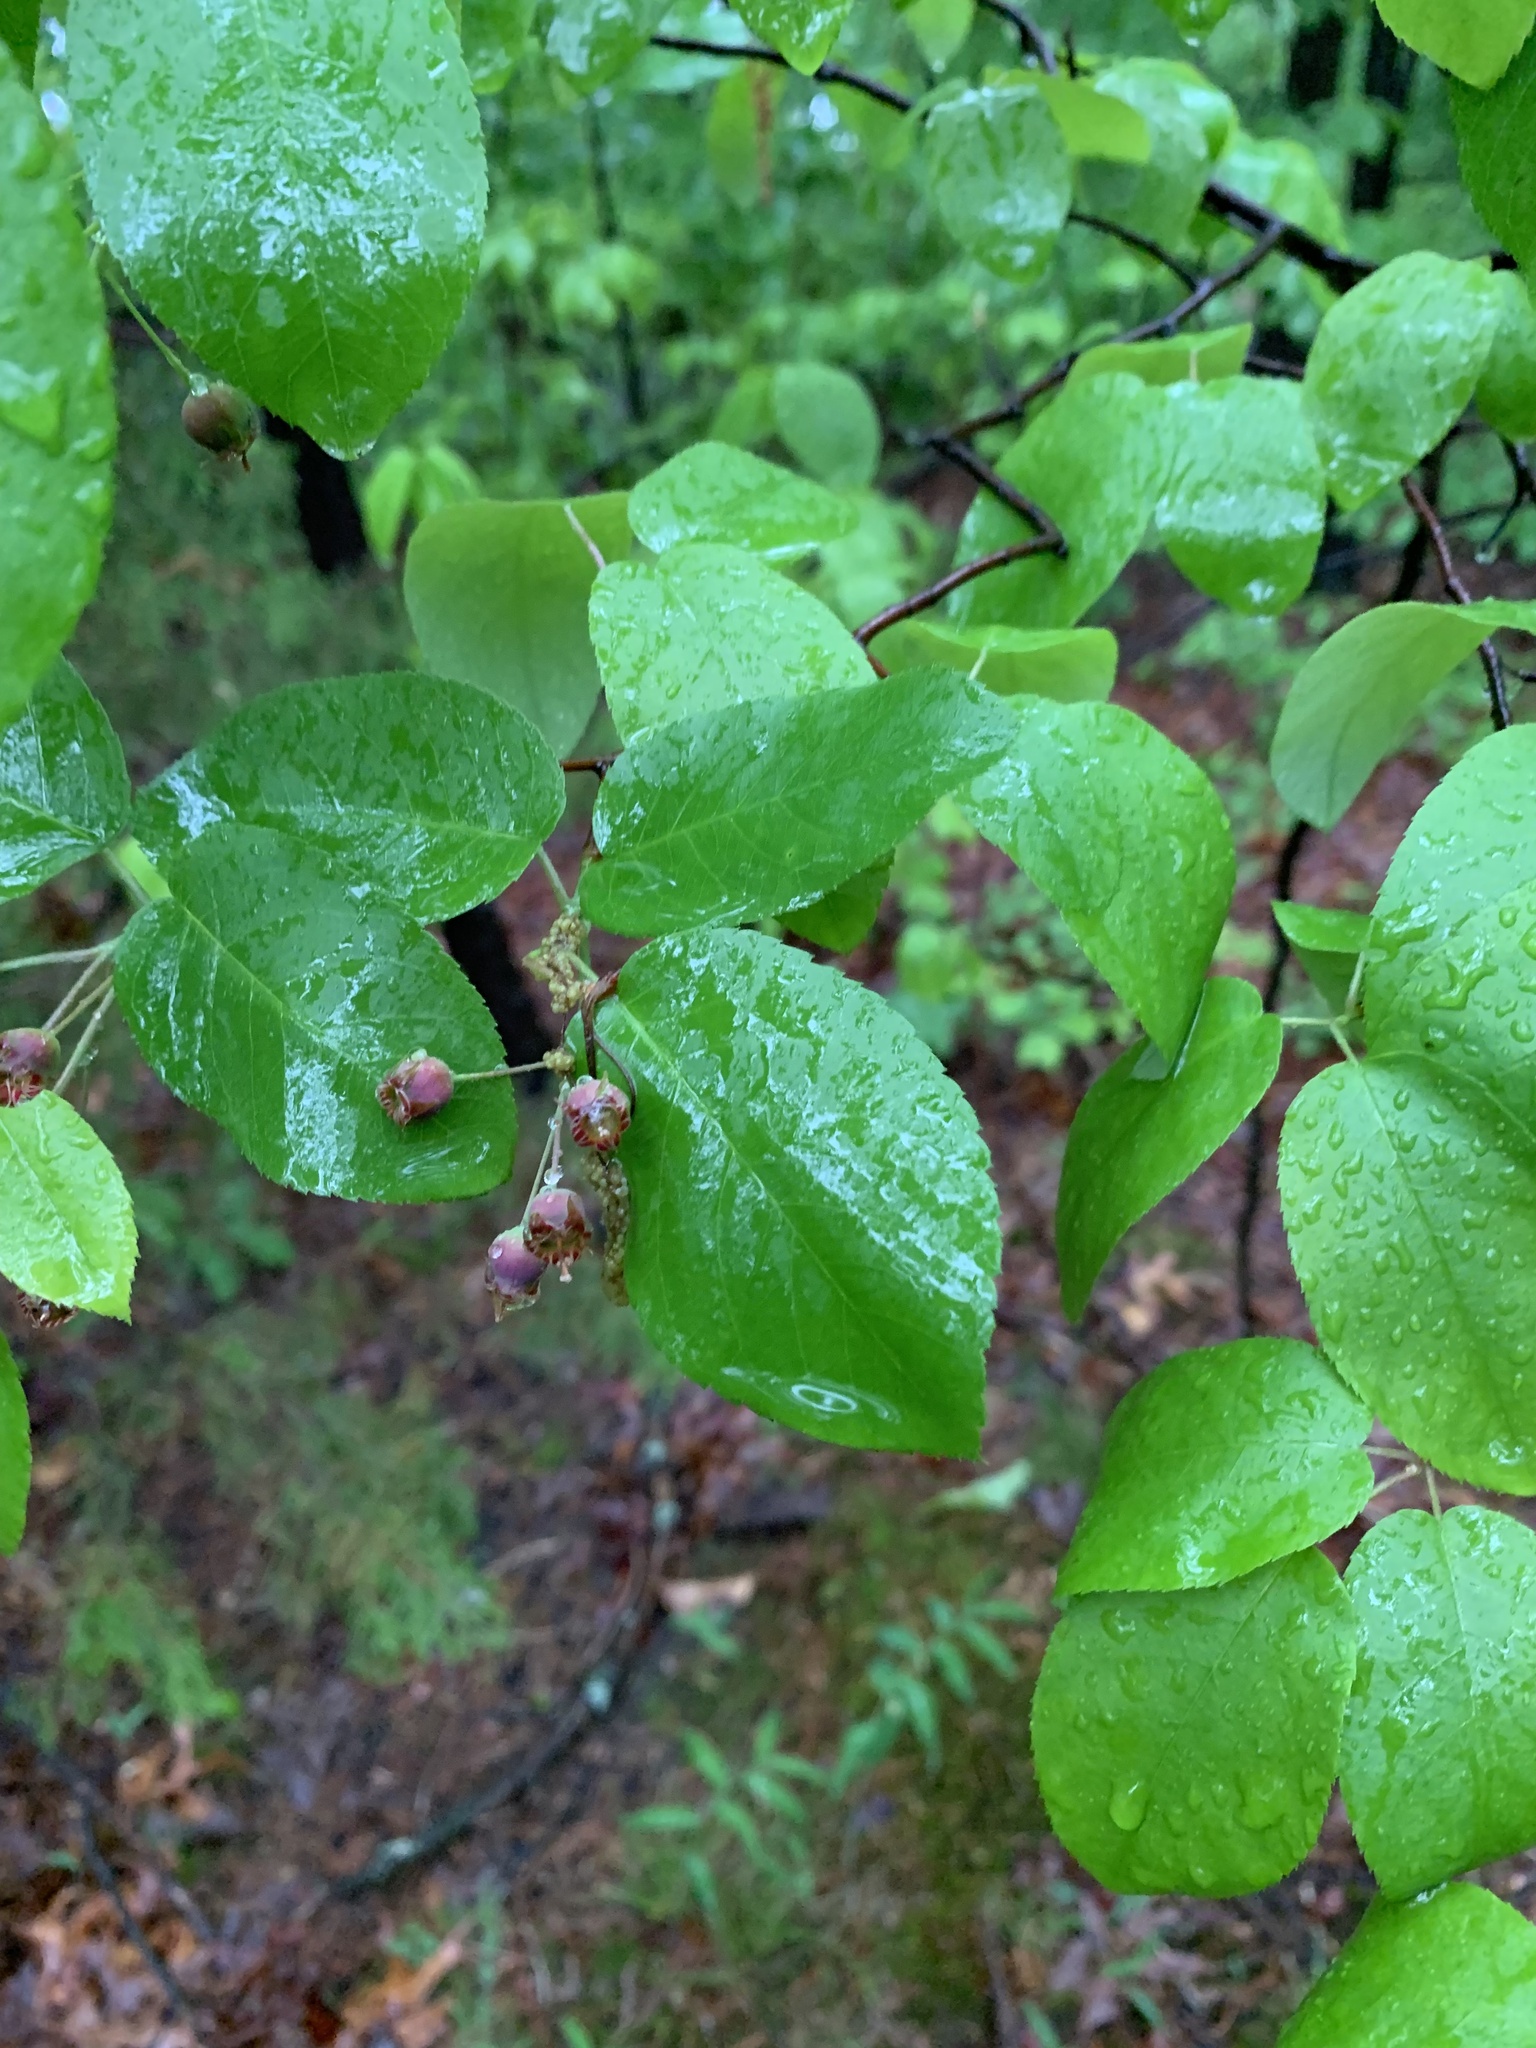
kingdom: Plantae
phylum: Tracheophyta
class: Magnoliopsida
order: Rosales
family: Rosaceae
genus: Amelanchier
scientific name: Amelanchier arborea
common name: Downy serviceberry
